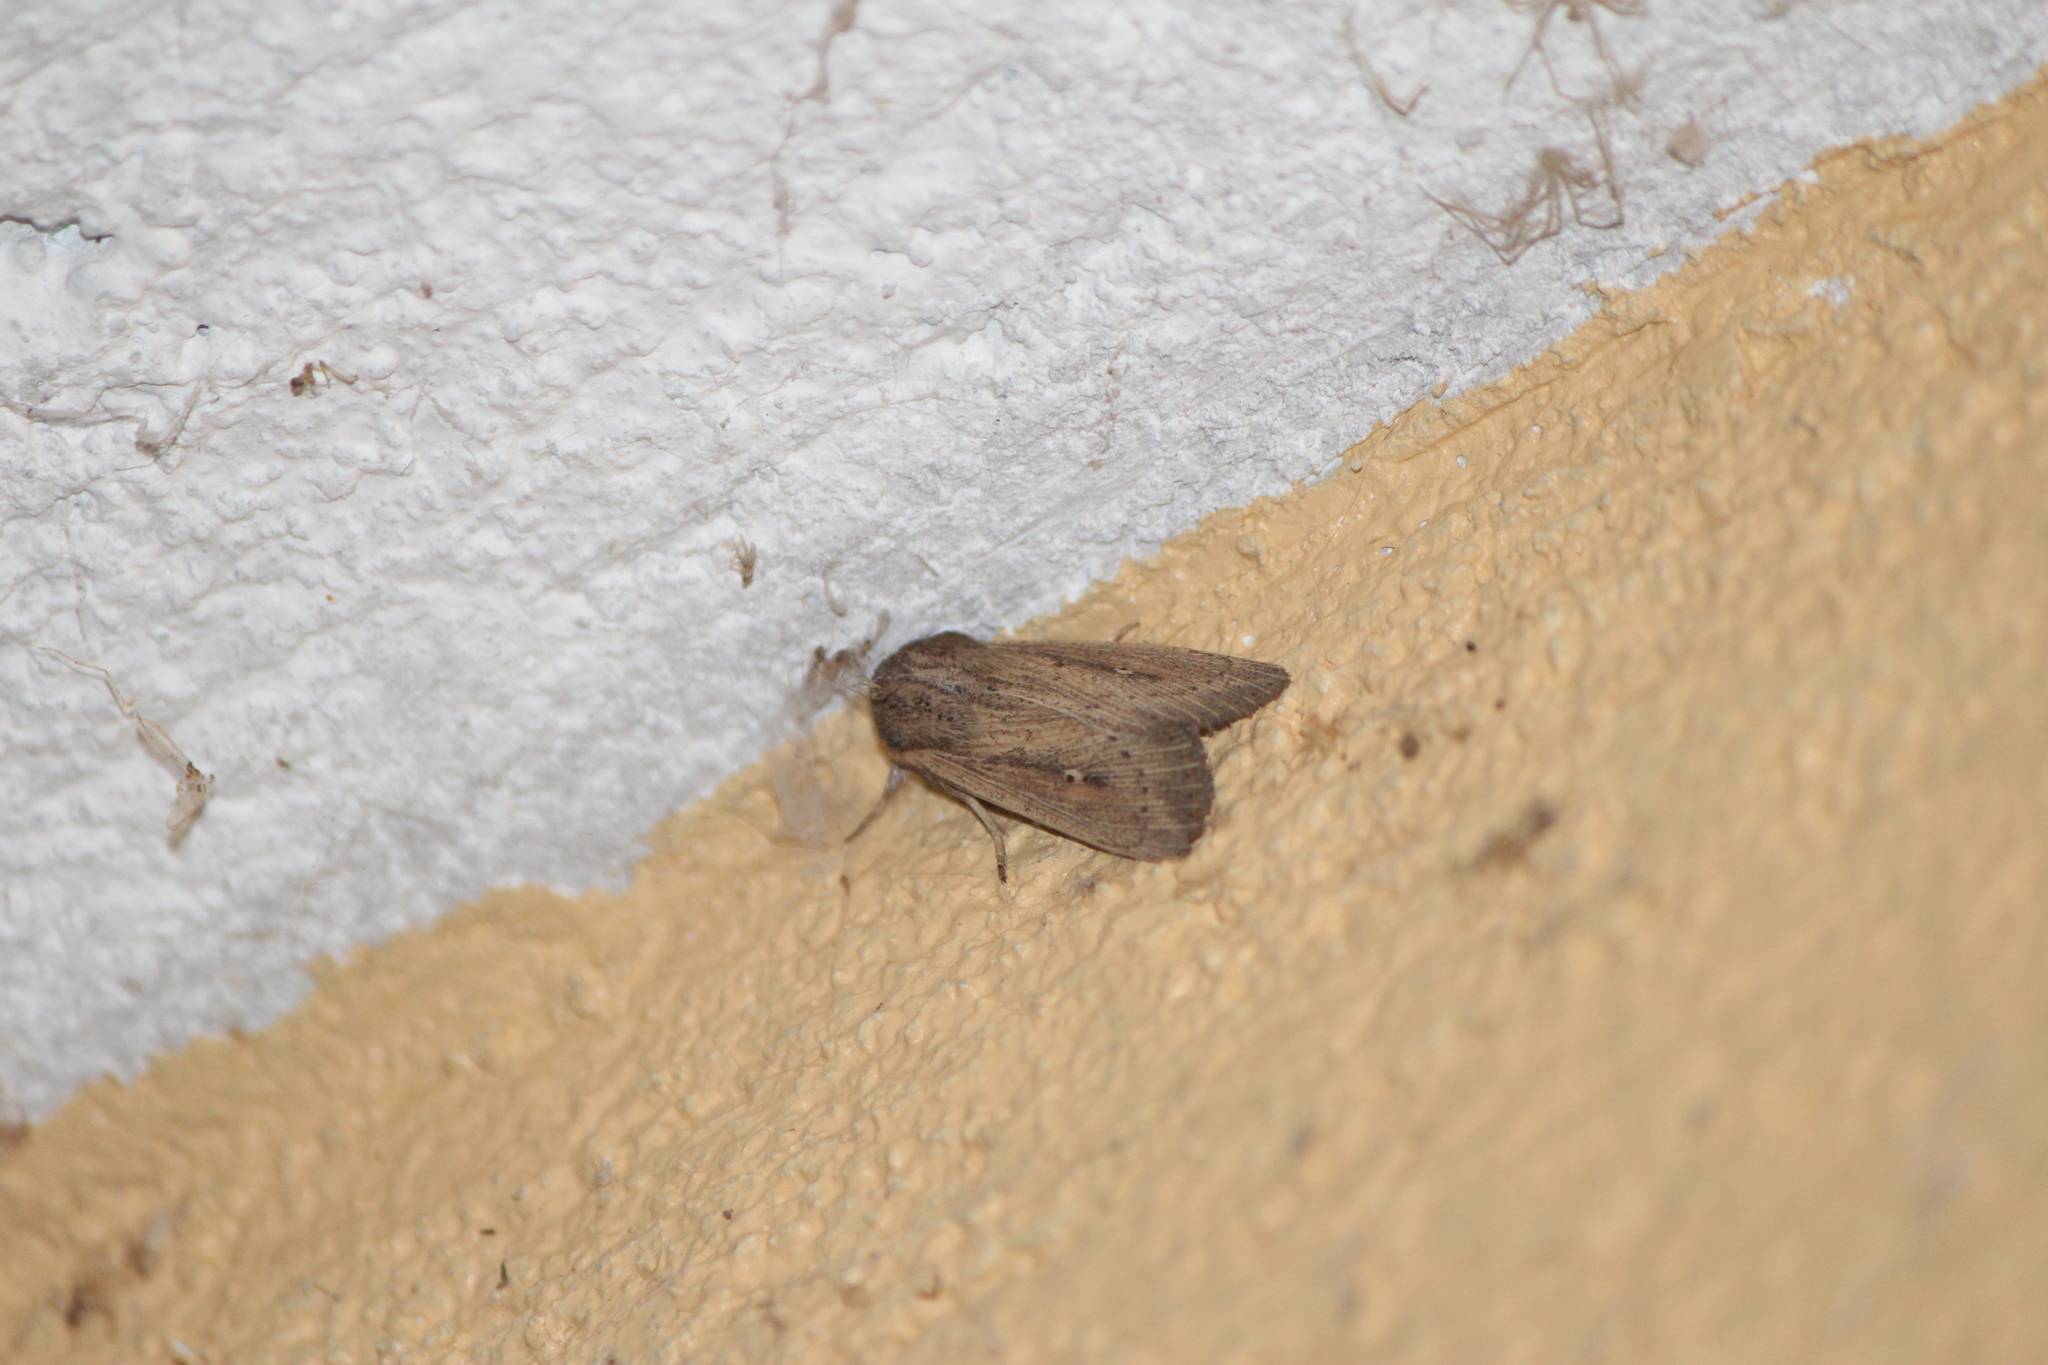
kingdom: Animalia
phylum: Arthropoda
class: Insecta
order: Lepidoptera
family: Noctuidae
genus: Leucania
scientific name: Leucania incognita
